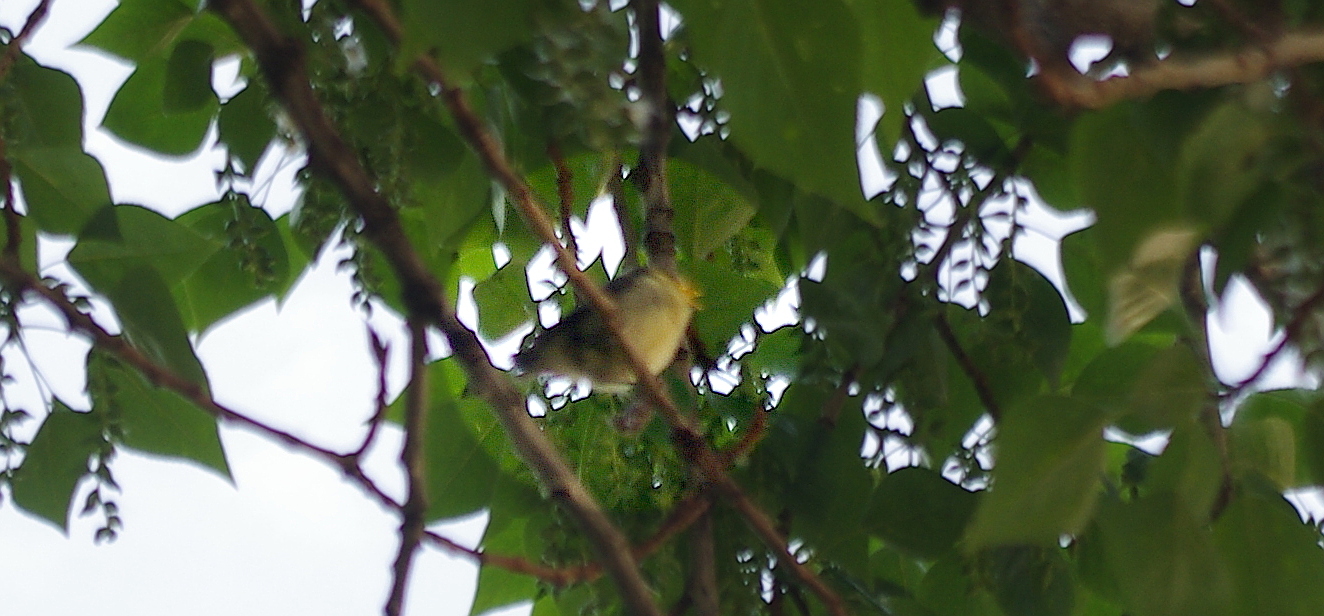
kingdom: Animalia
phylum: Chordata
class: Aves
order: Passeriformes
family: Paridae
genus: Cyanistes
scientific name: Cyanistes caeruleus
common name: Eurasian blue tit
